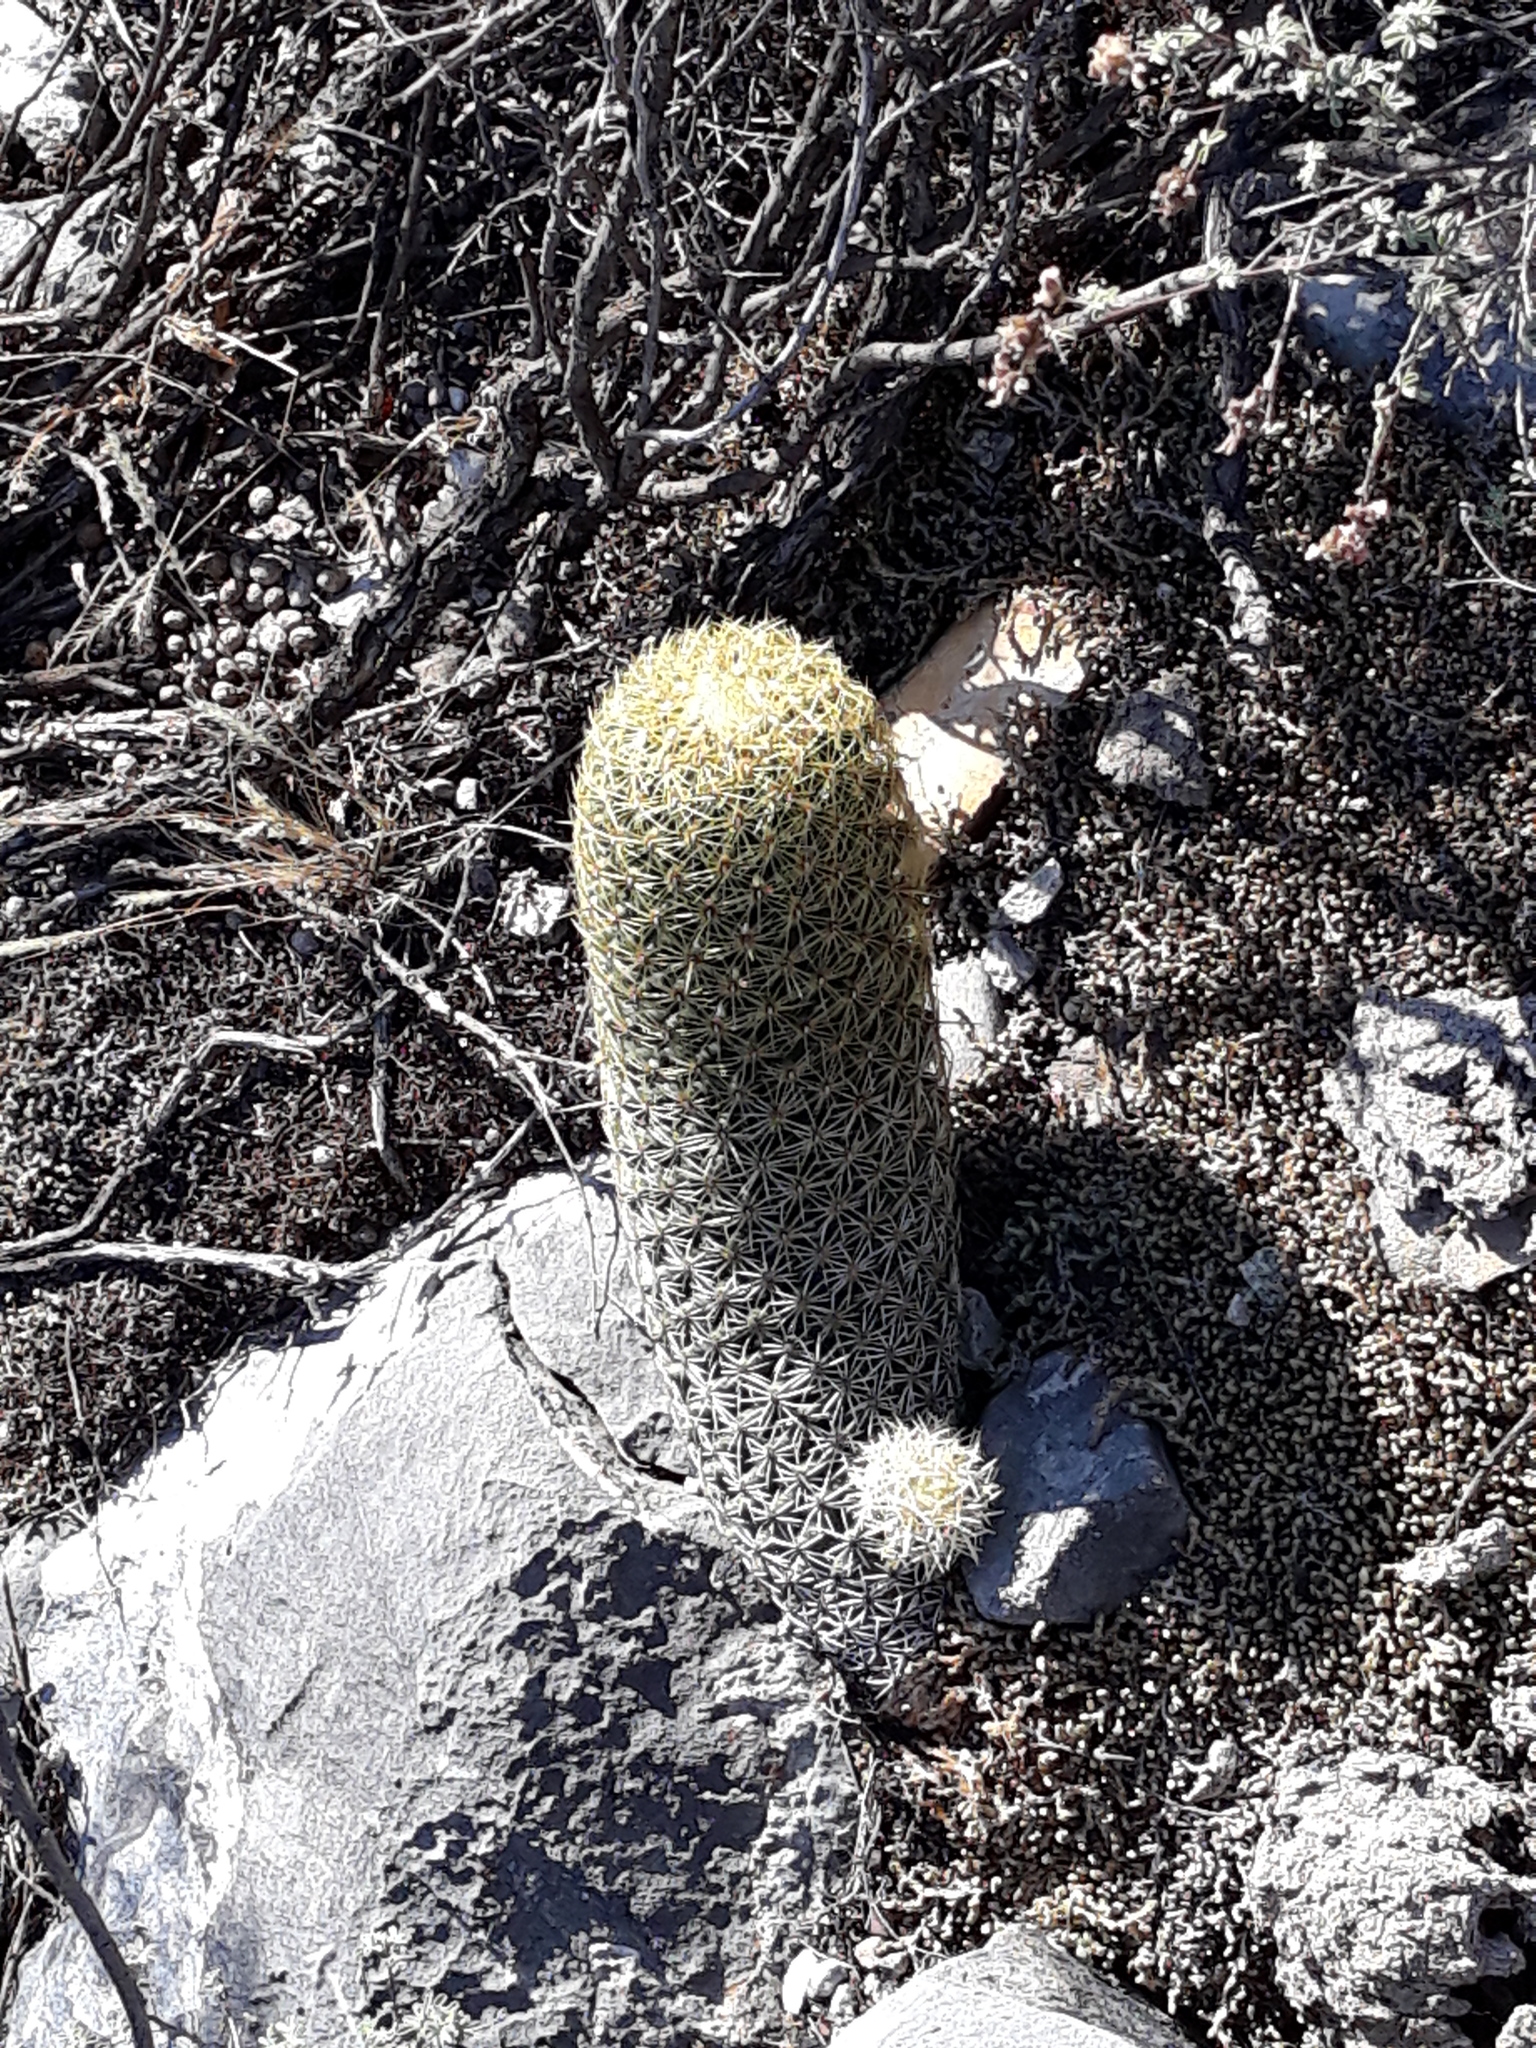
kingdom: Plantae
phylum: Tracheophyta
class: Magnoliopsida
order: Caryophyllales
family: Cactaceae
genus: Coryphantha
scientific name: Coryphantha erecta
